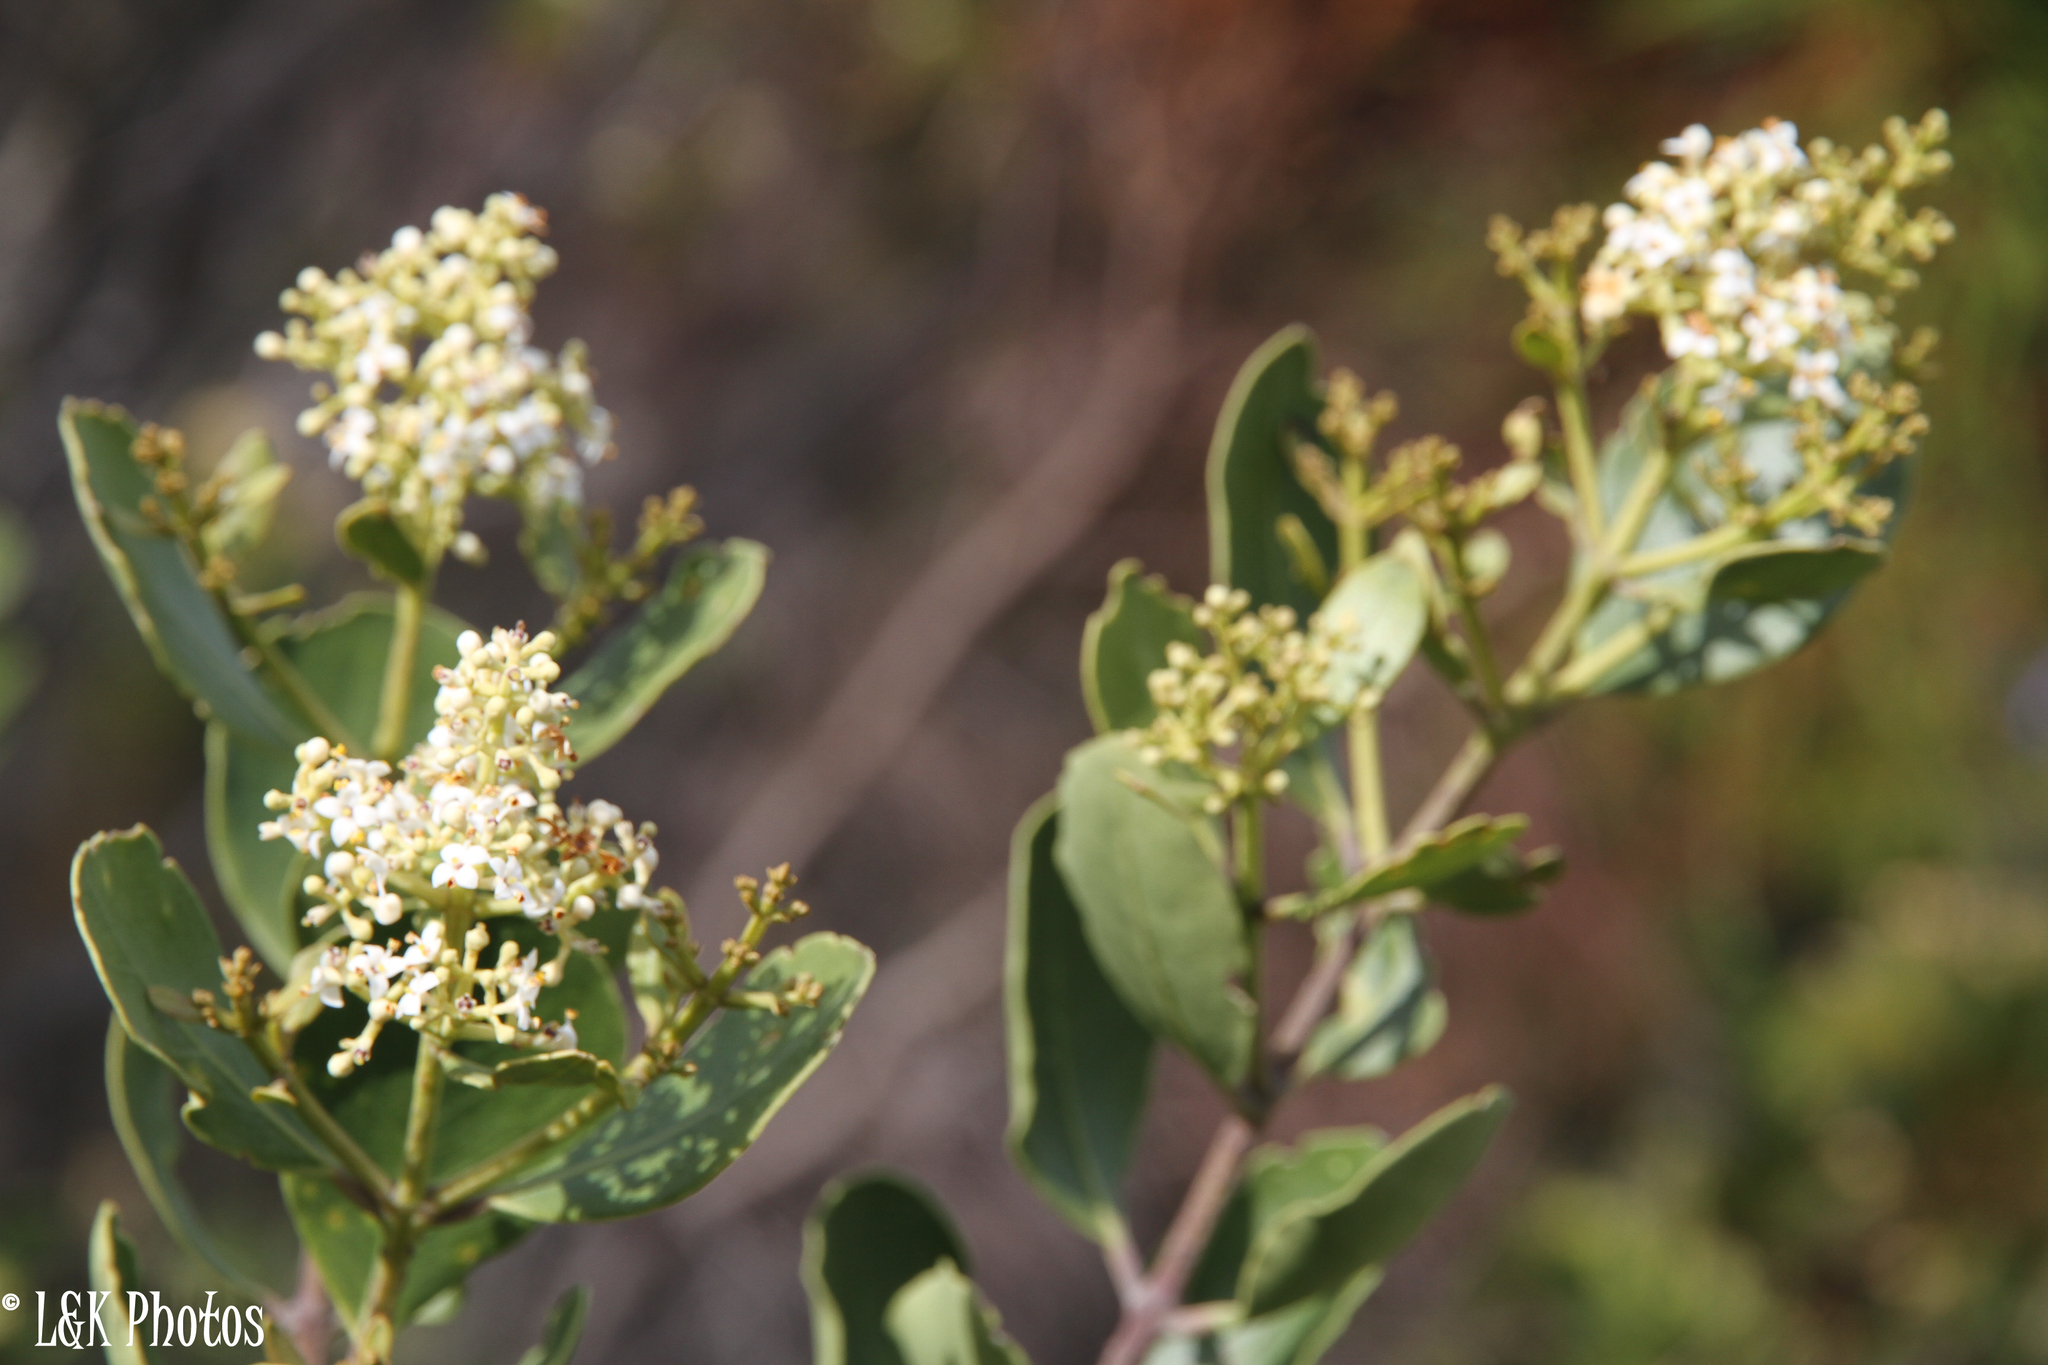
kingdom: Plantae
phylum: Tracheophyta
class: Magnoliopsida
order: Lamiales
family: Oleaceae
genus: Olea
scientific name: Olea capensis
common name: Black ironwood
